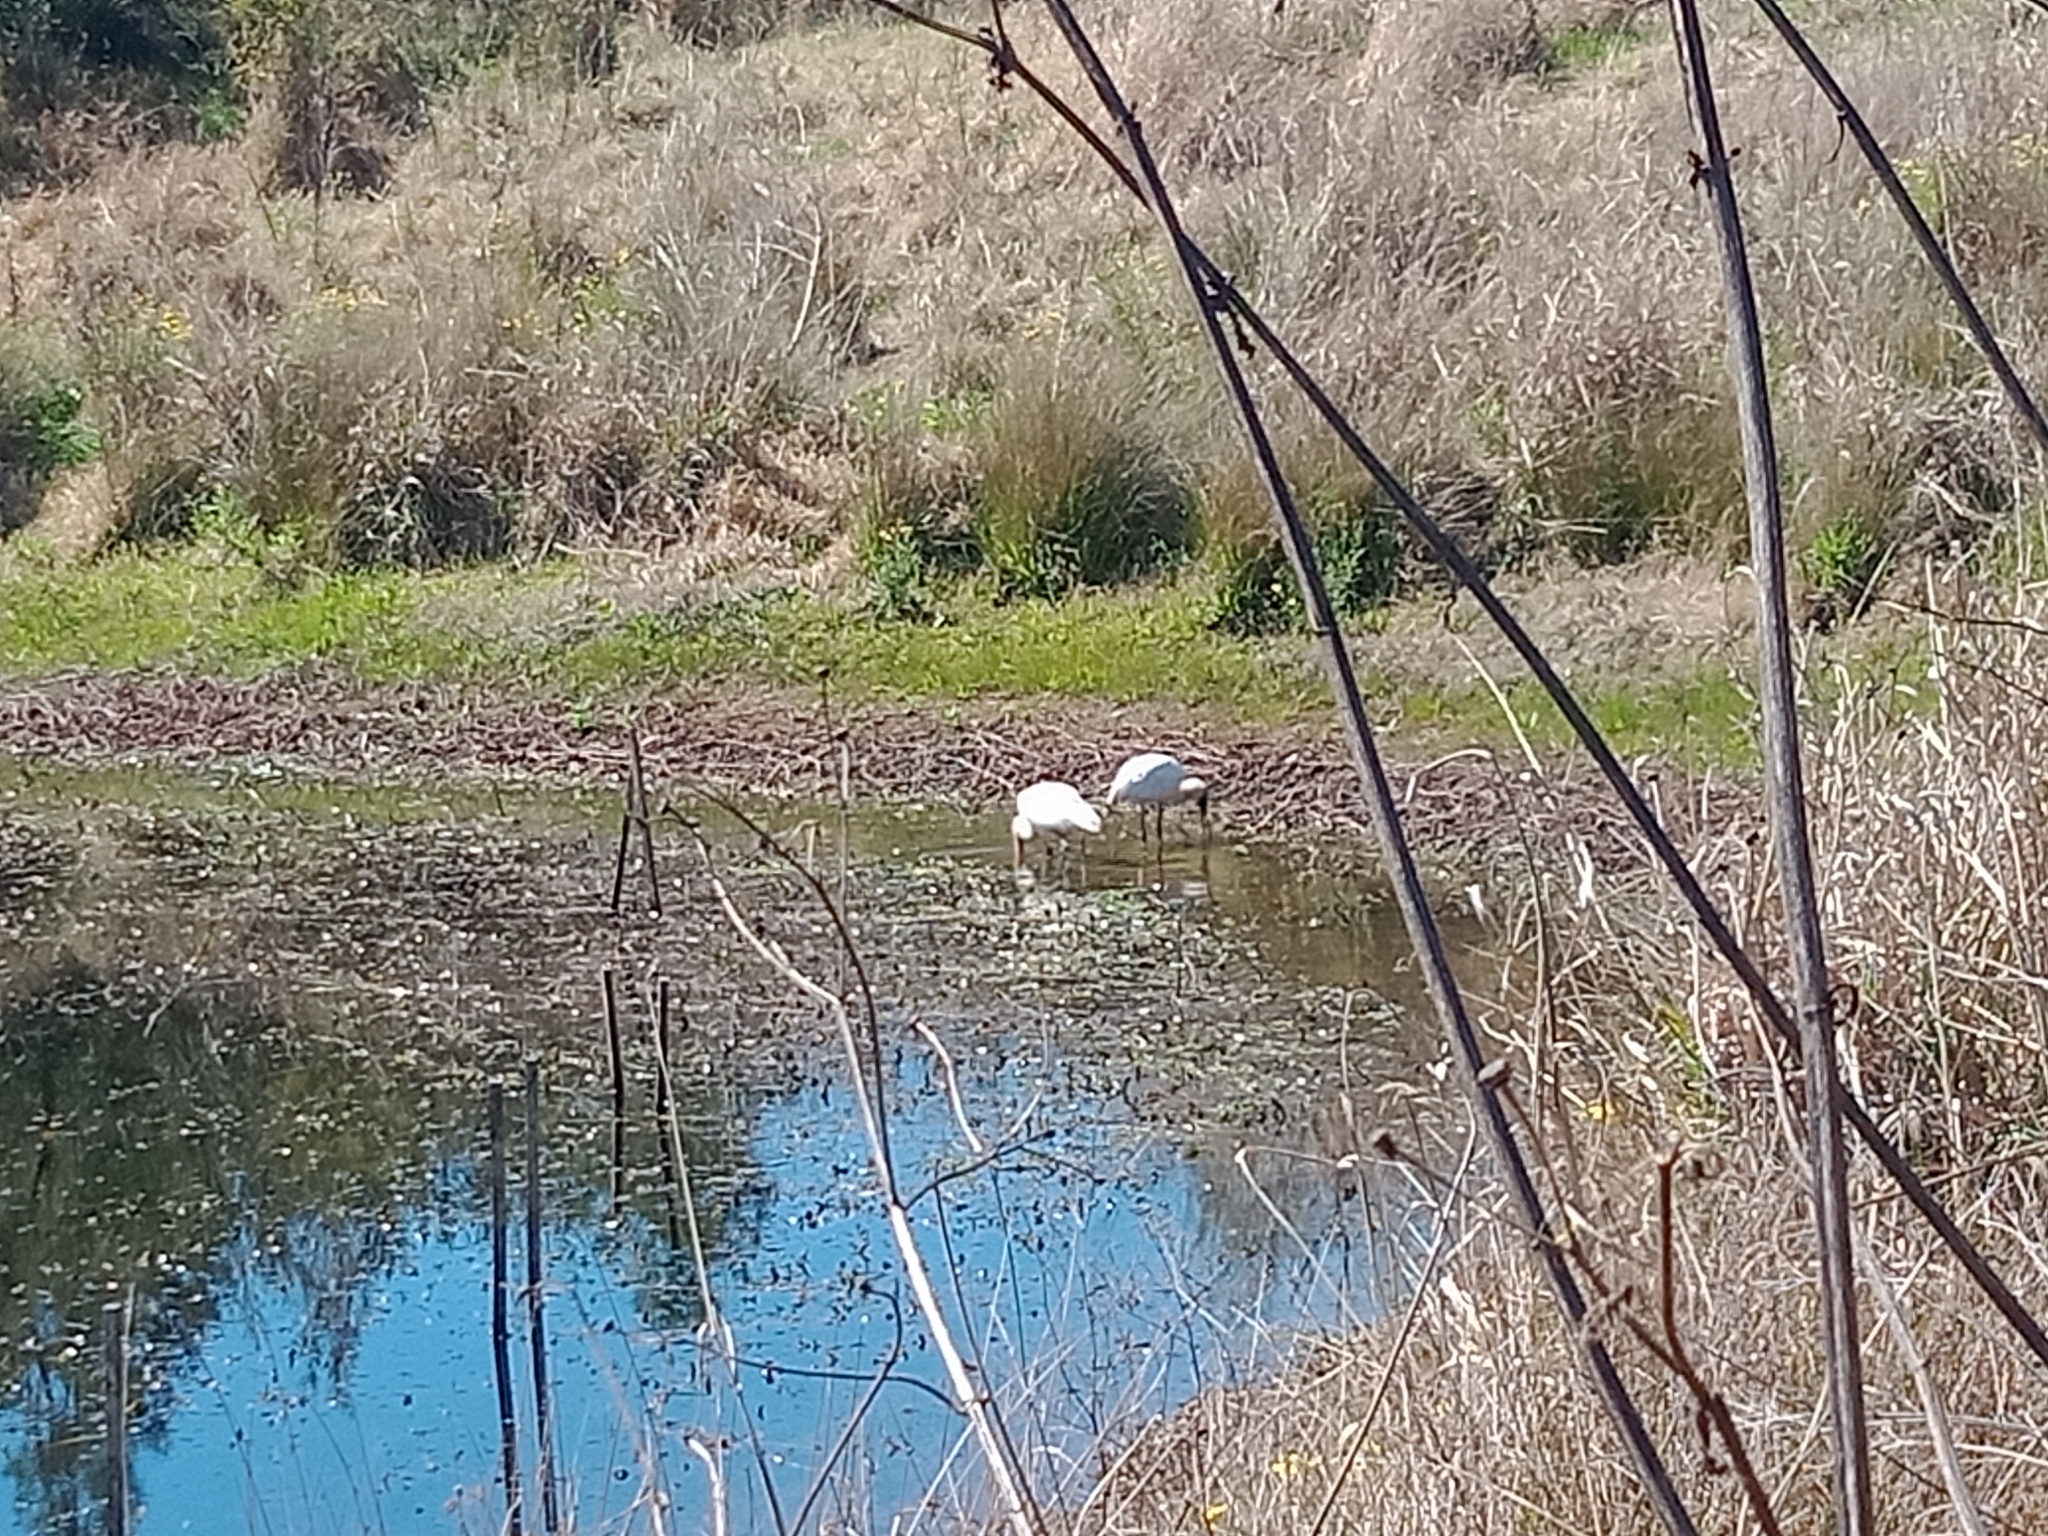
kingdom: Animalia
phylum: Chordata
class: Aves
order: Pelecaniformes
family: Threskiornithidae
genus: Platalea
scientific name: Platalea regia
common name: Royal spoonbill
